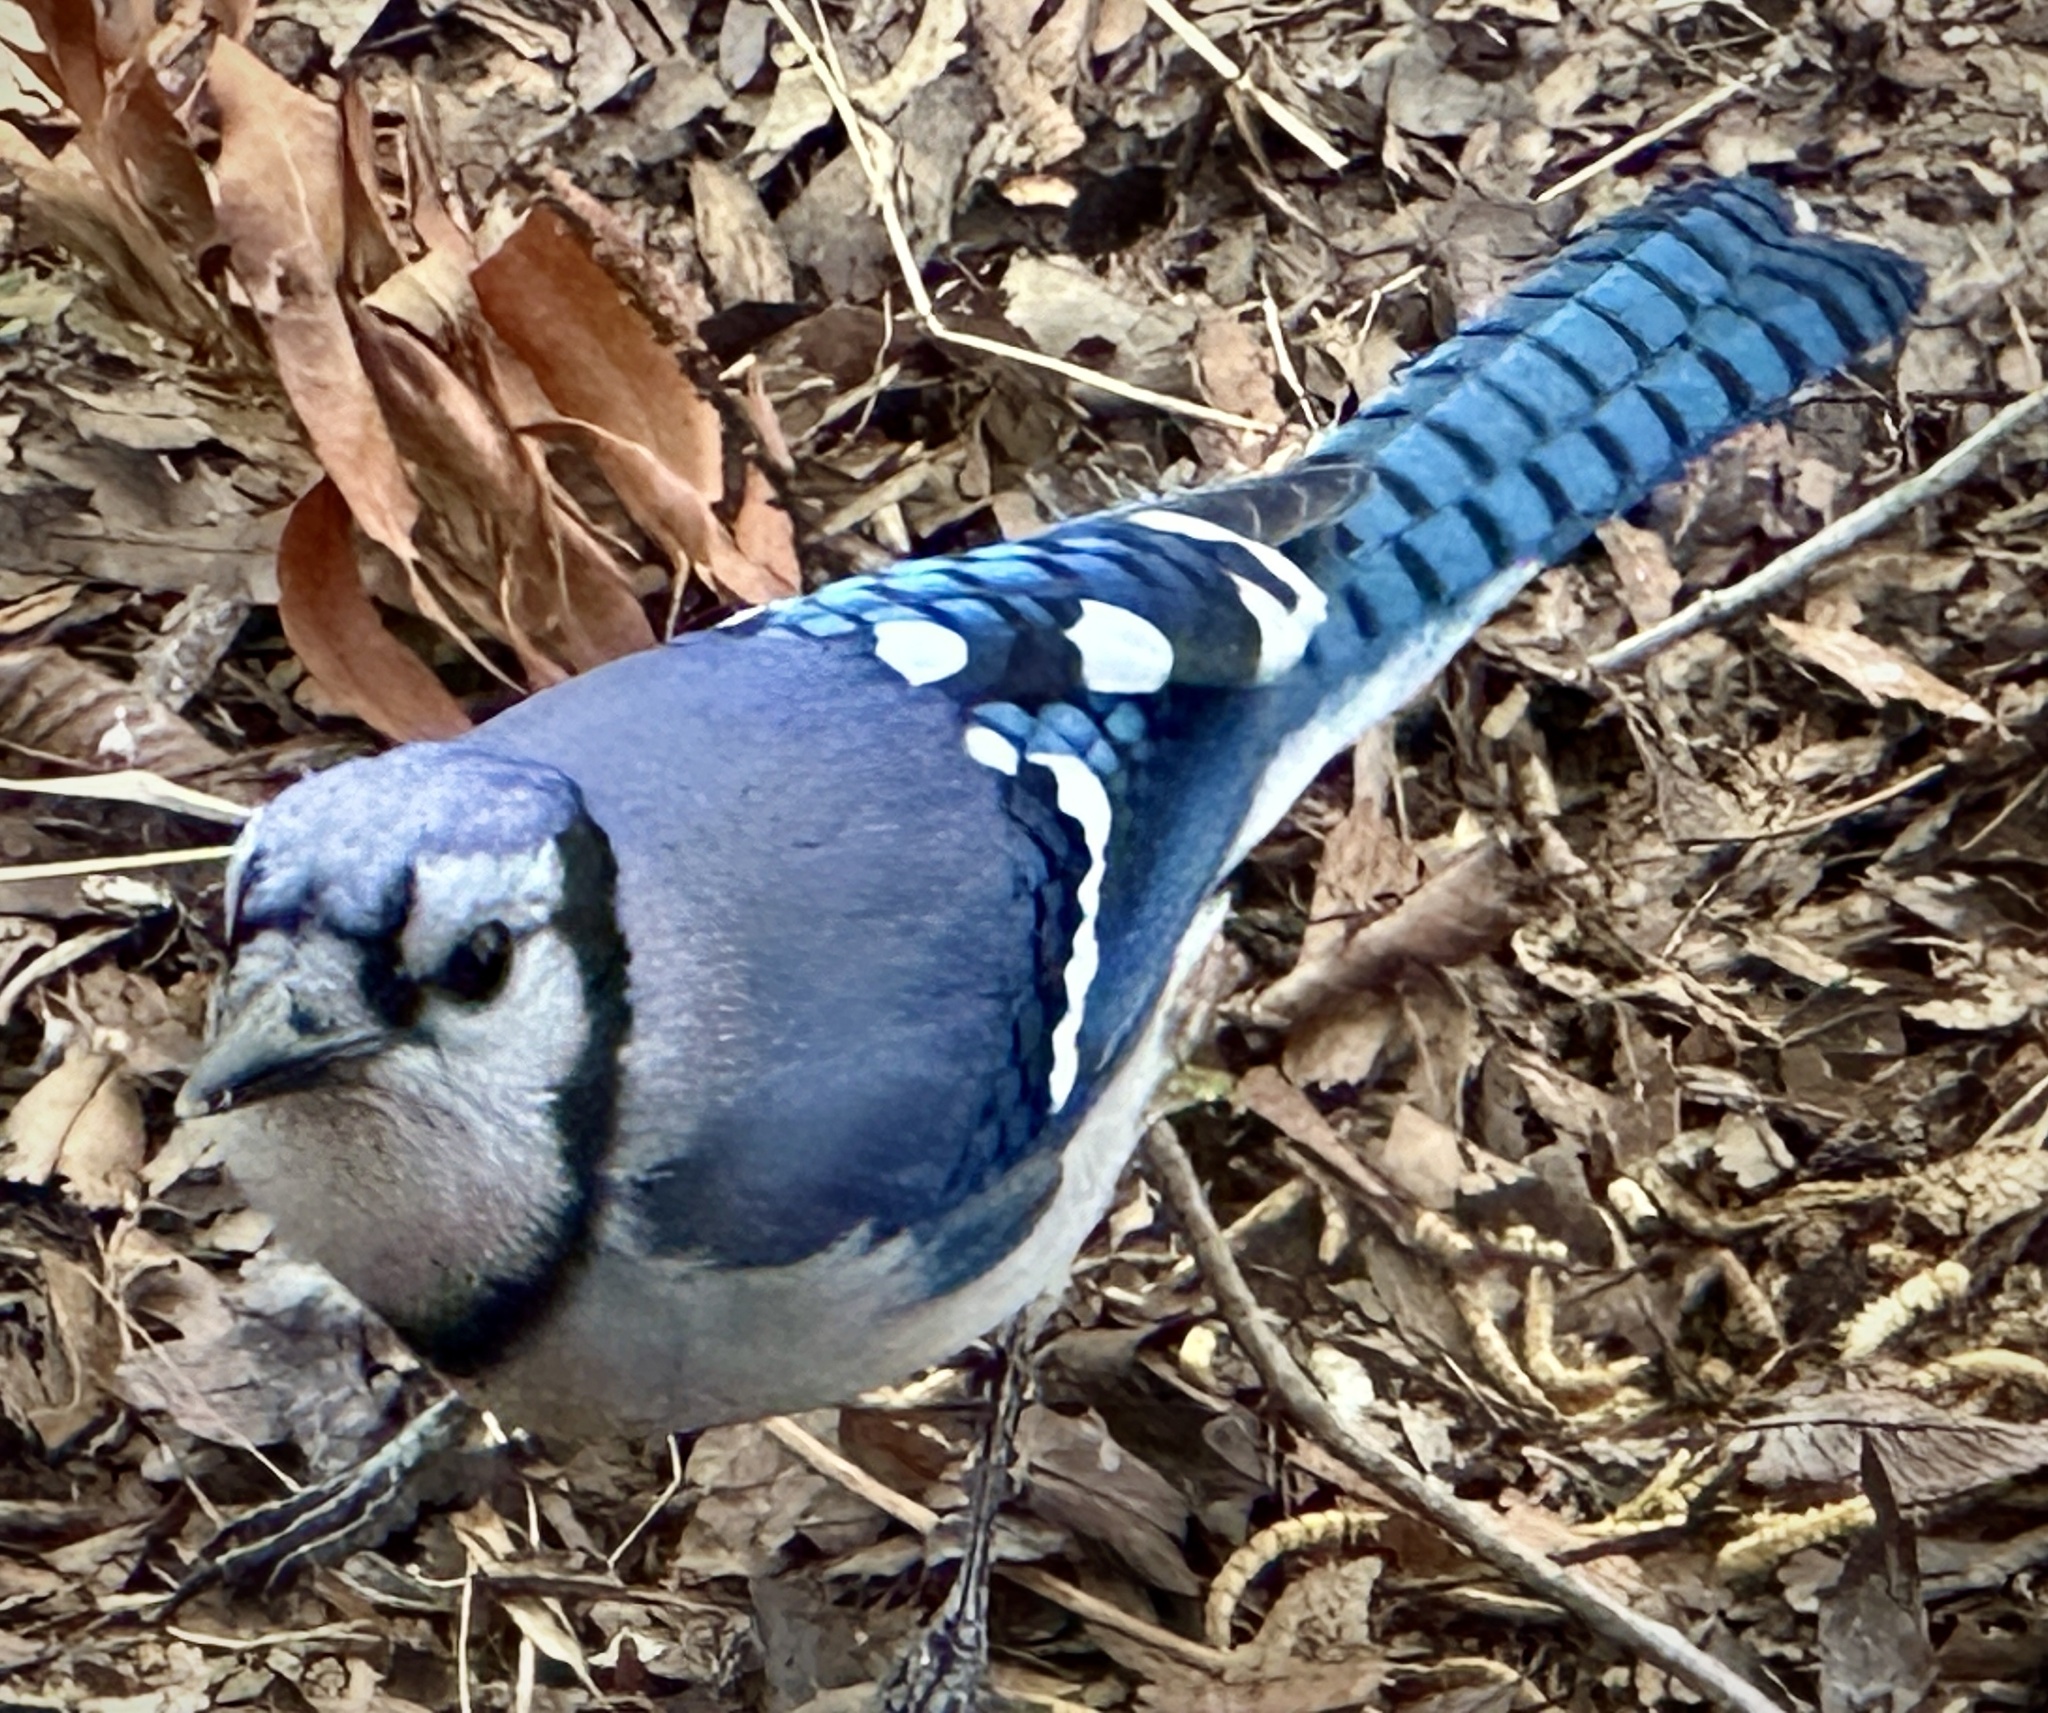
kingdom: Animalia
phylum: Chordata
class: Aves
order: Passeriformes
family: Corvidae
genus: Cyanocitta
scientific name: Cyanocitta cristata
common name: Blue jay
